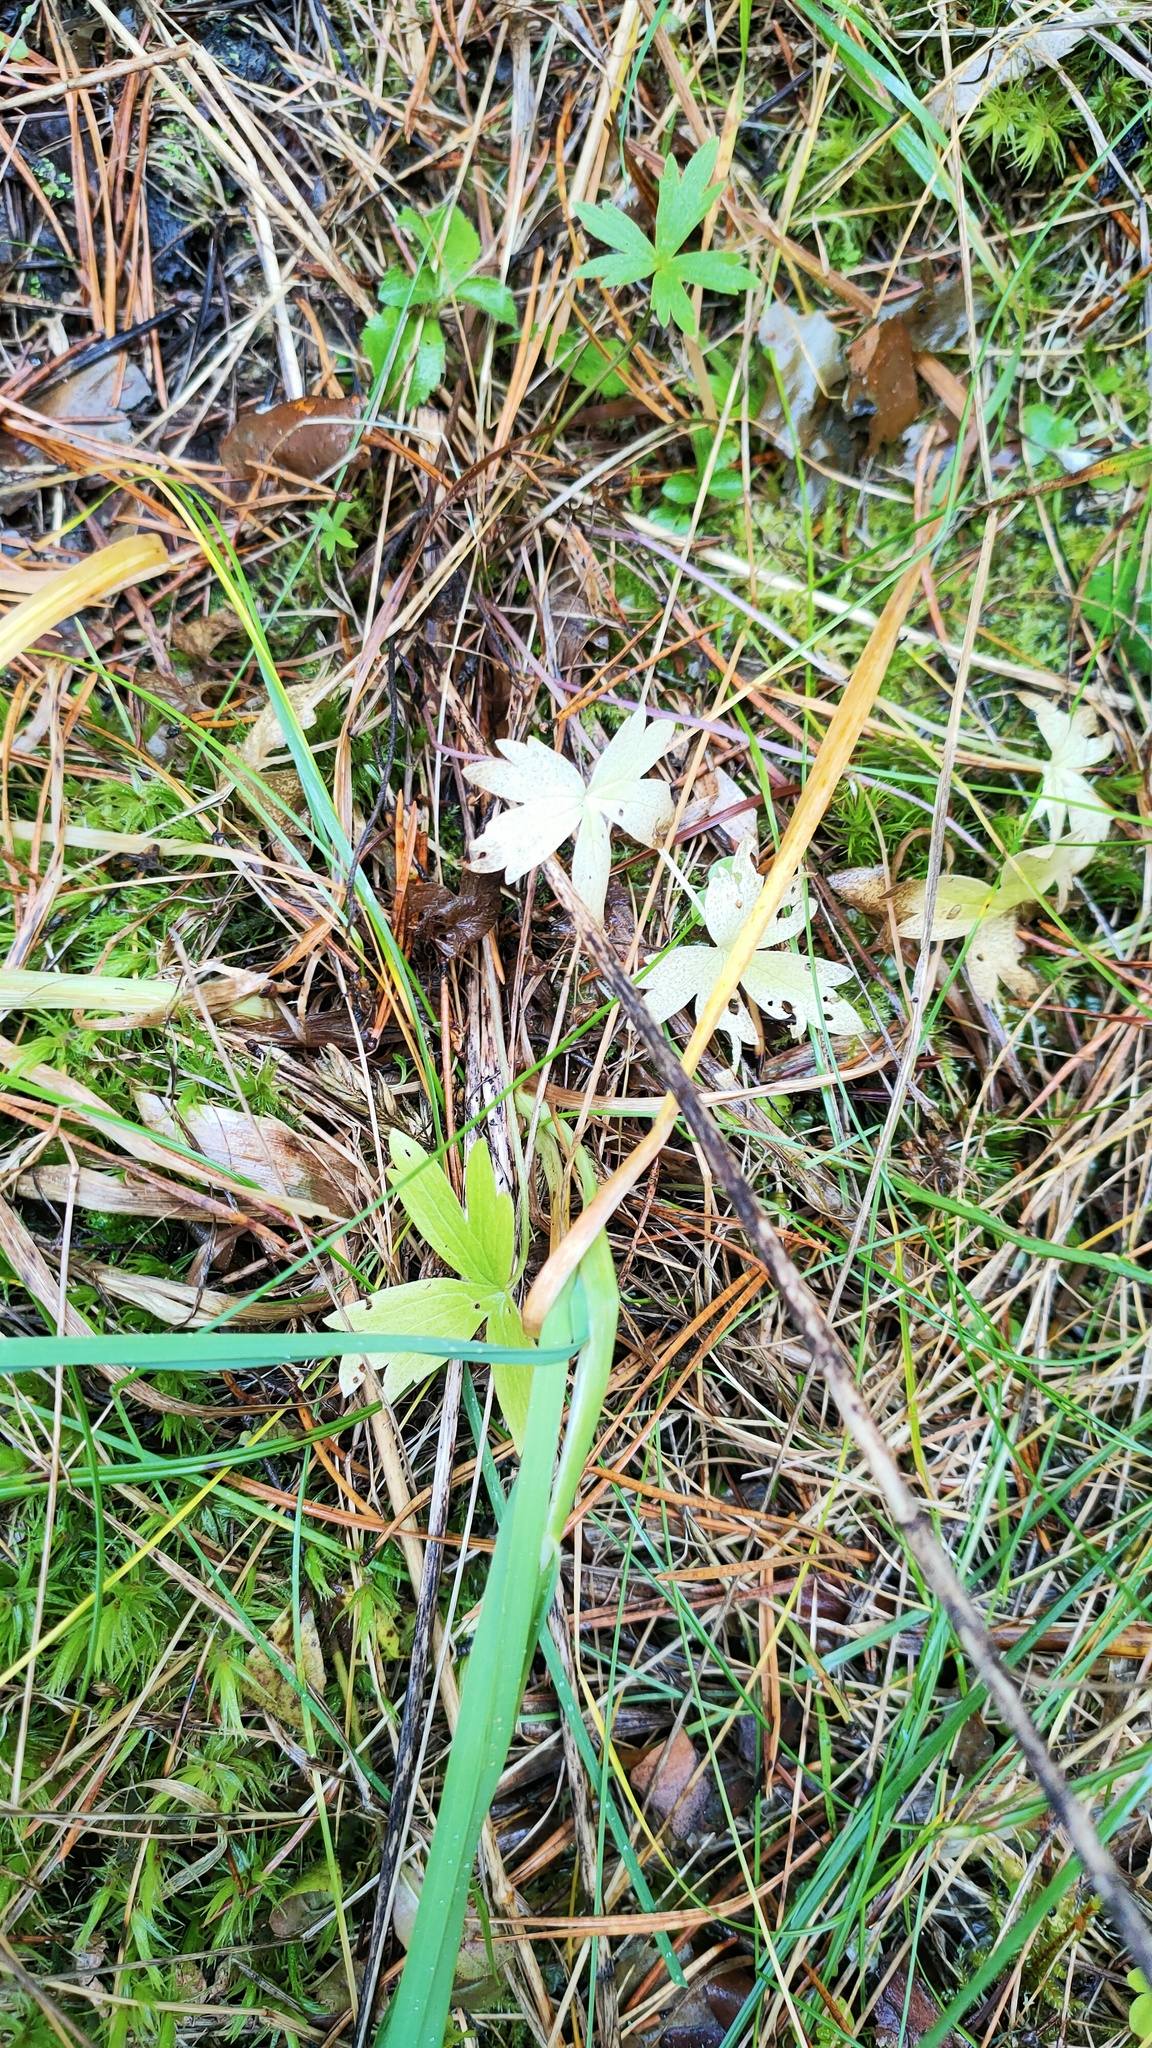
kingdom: Plantae
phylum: Tracheophyta
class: Magnoliopsida
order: Ranunculales
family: Ranunculaceae
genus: Ranunculus
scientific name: Ranunculus acris
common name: Meadow buttercup
